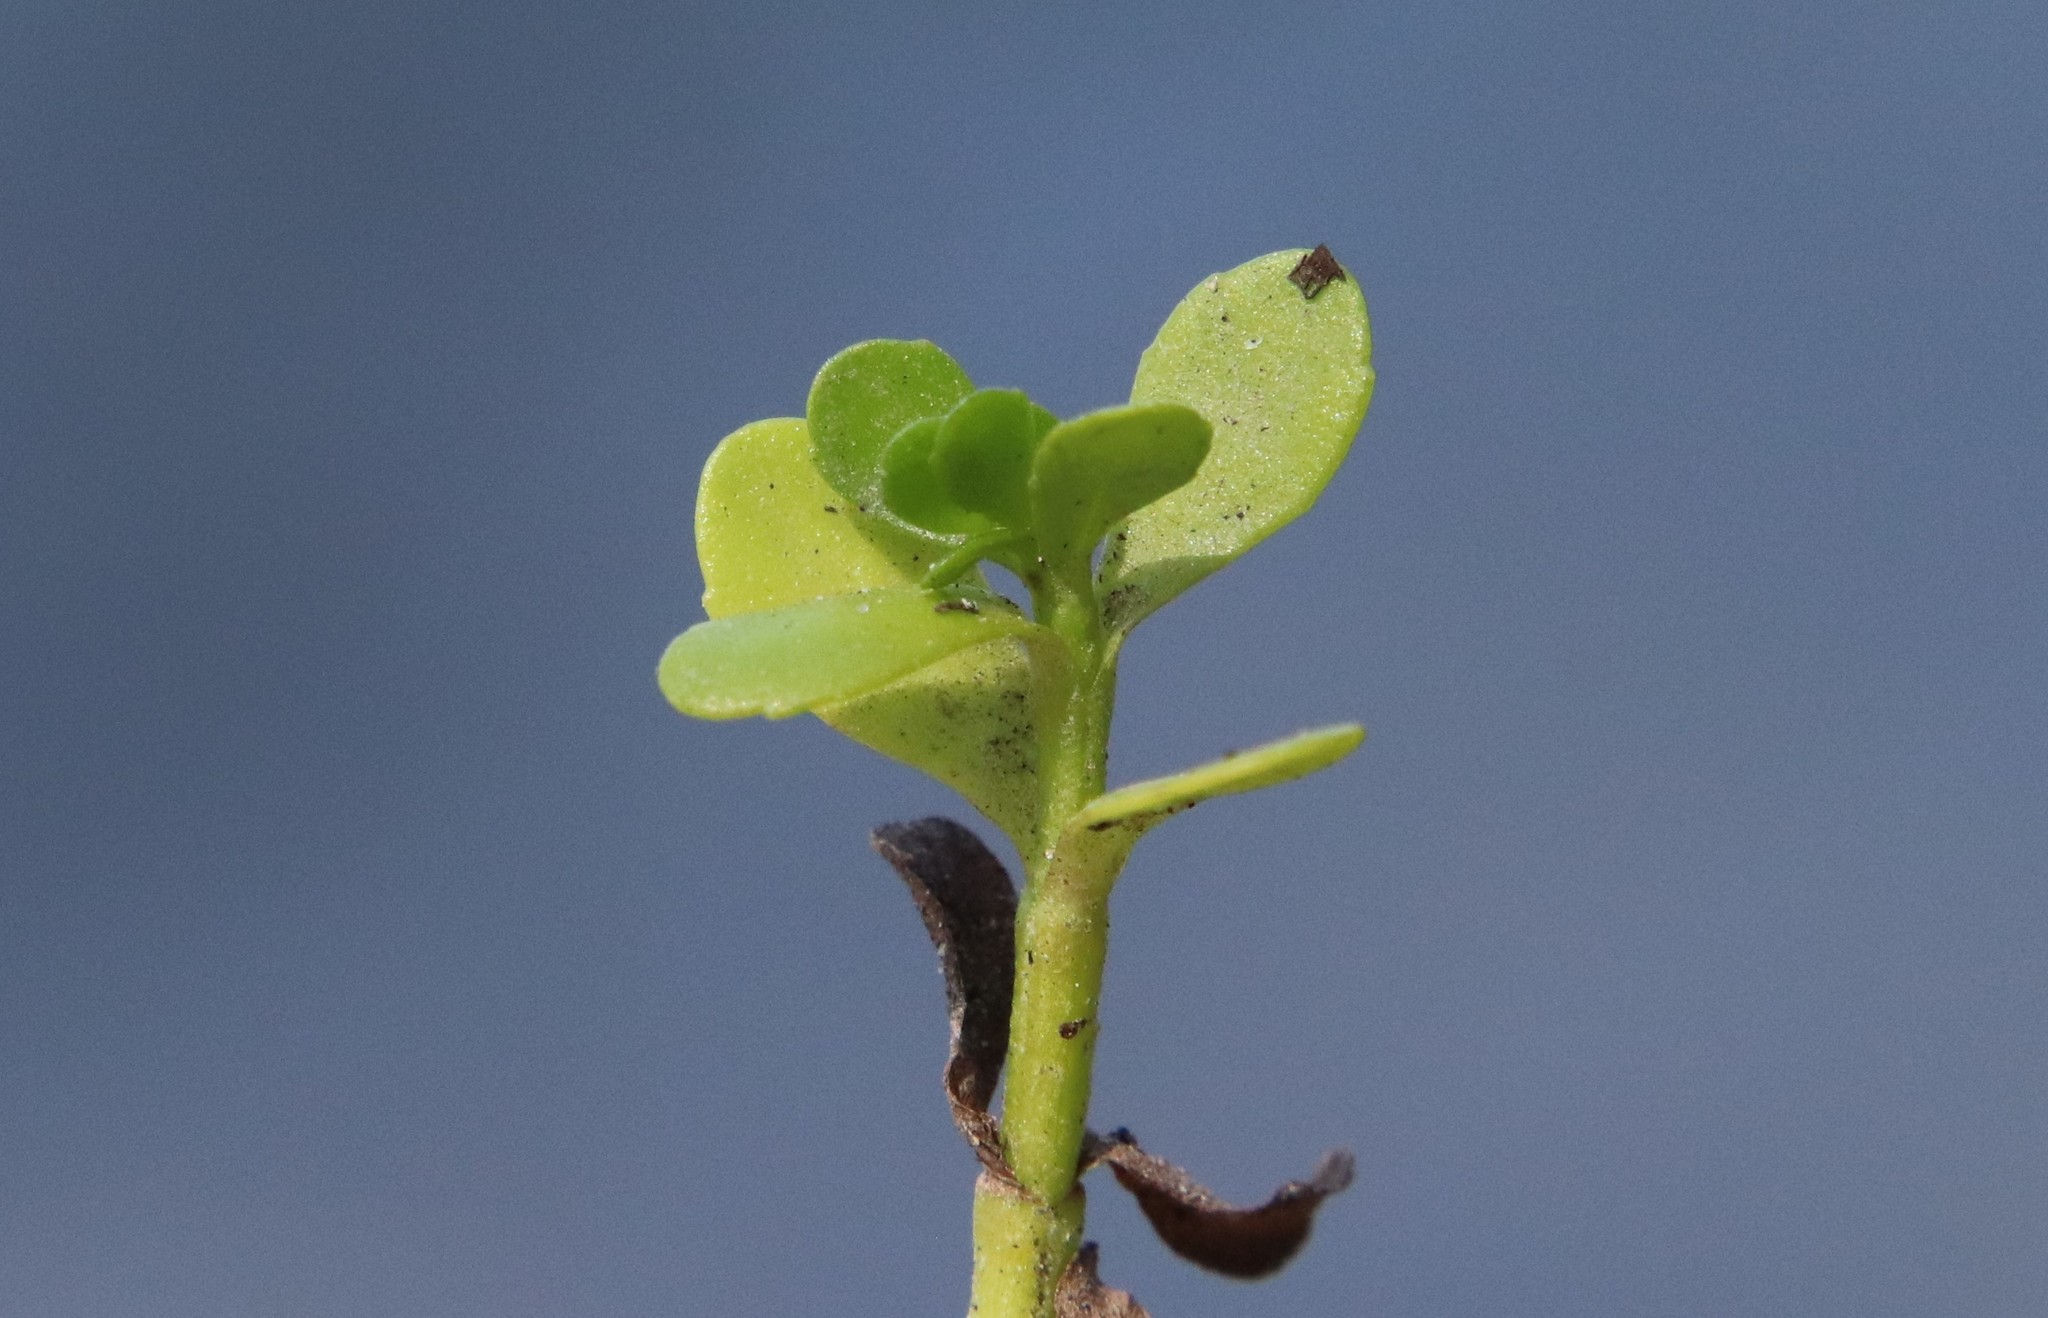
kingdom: Plantae
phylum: Tracheophyta
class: Magnoliopsida
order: Lamiales
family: Plantaginaceae
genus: Bacopa
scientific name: Bacopa monnieri
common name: Indian-pennywort
